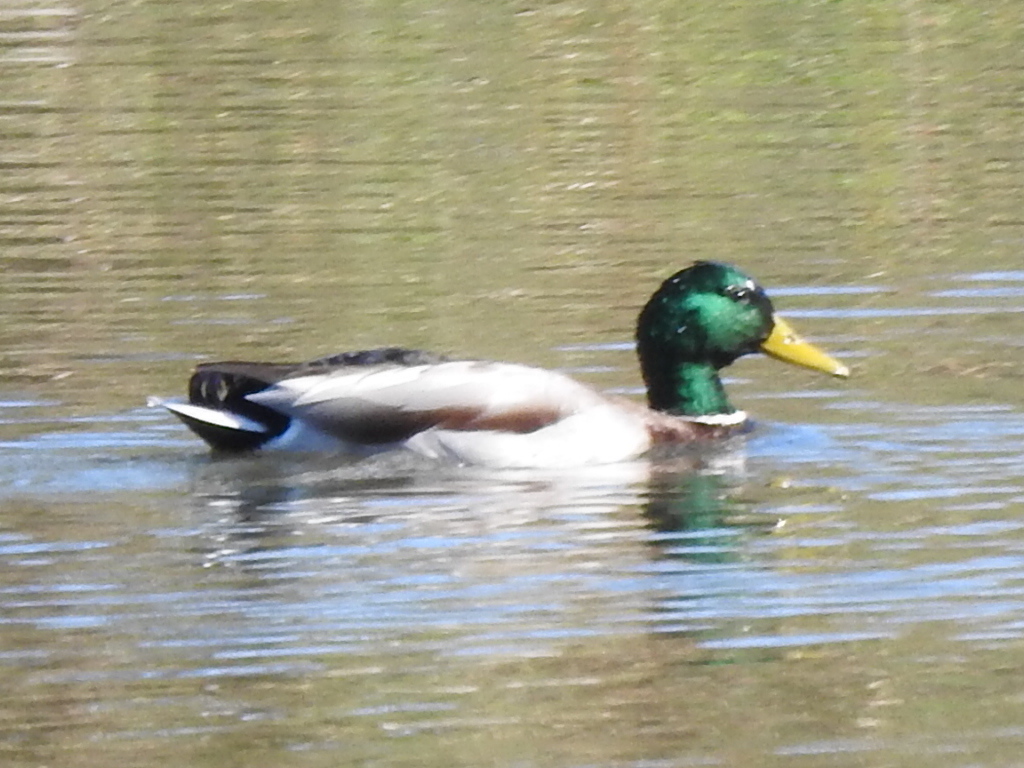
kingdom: Animalia
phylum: Chordata
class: Aves
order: Anseriformes
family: Anatidae
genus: Anas
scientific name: Anas platyrhynchos
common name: Mallard
